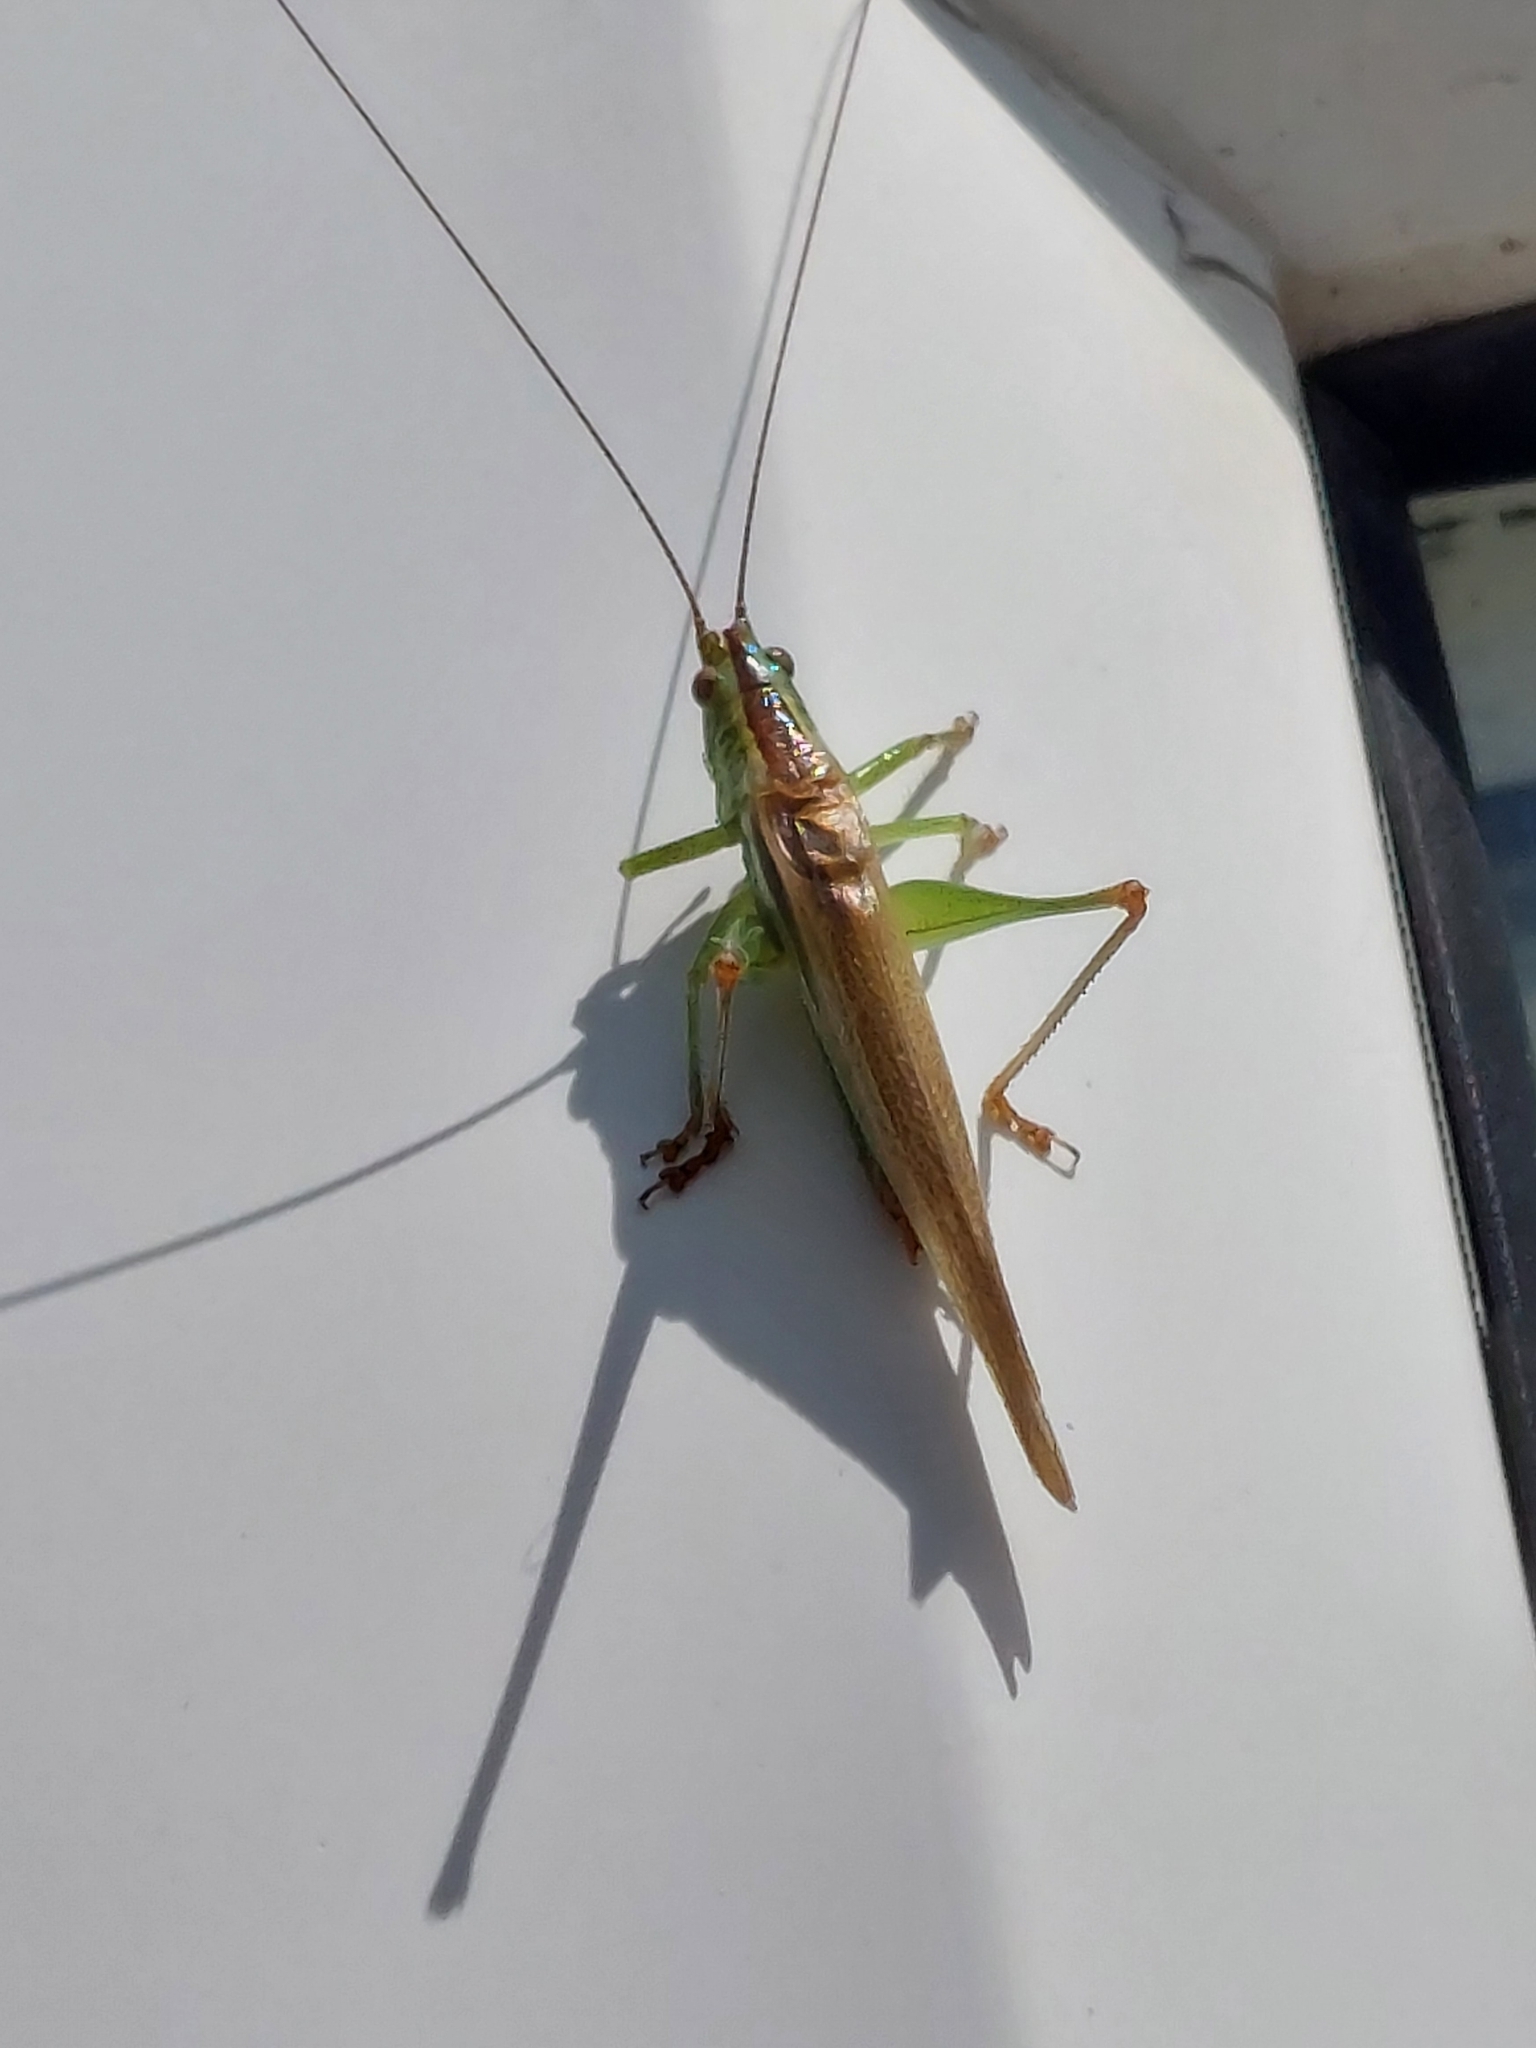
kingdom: Animalia
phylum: Arthropoda
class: Insecta
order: Orthoptera
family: Tettigoniidae
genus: Conocephalus
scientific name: Conocephalus fuscus
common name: Long-winged conehead
